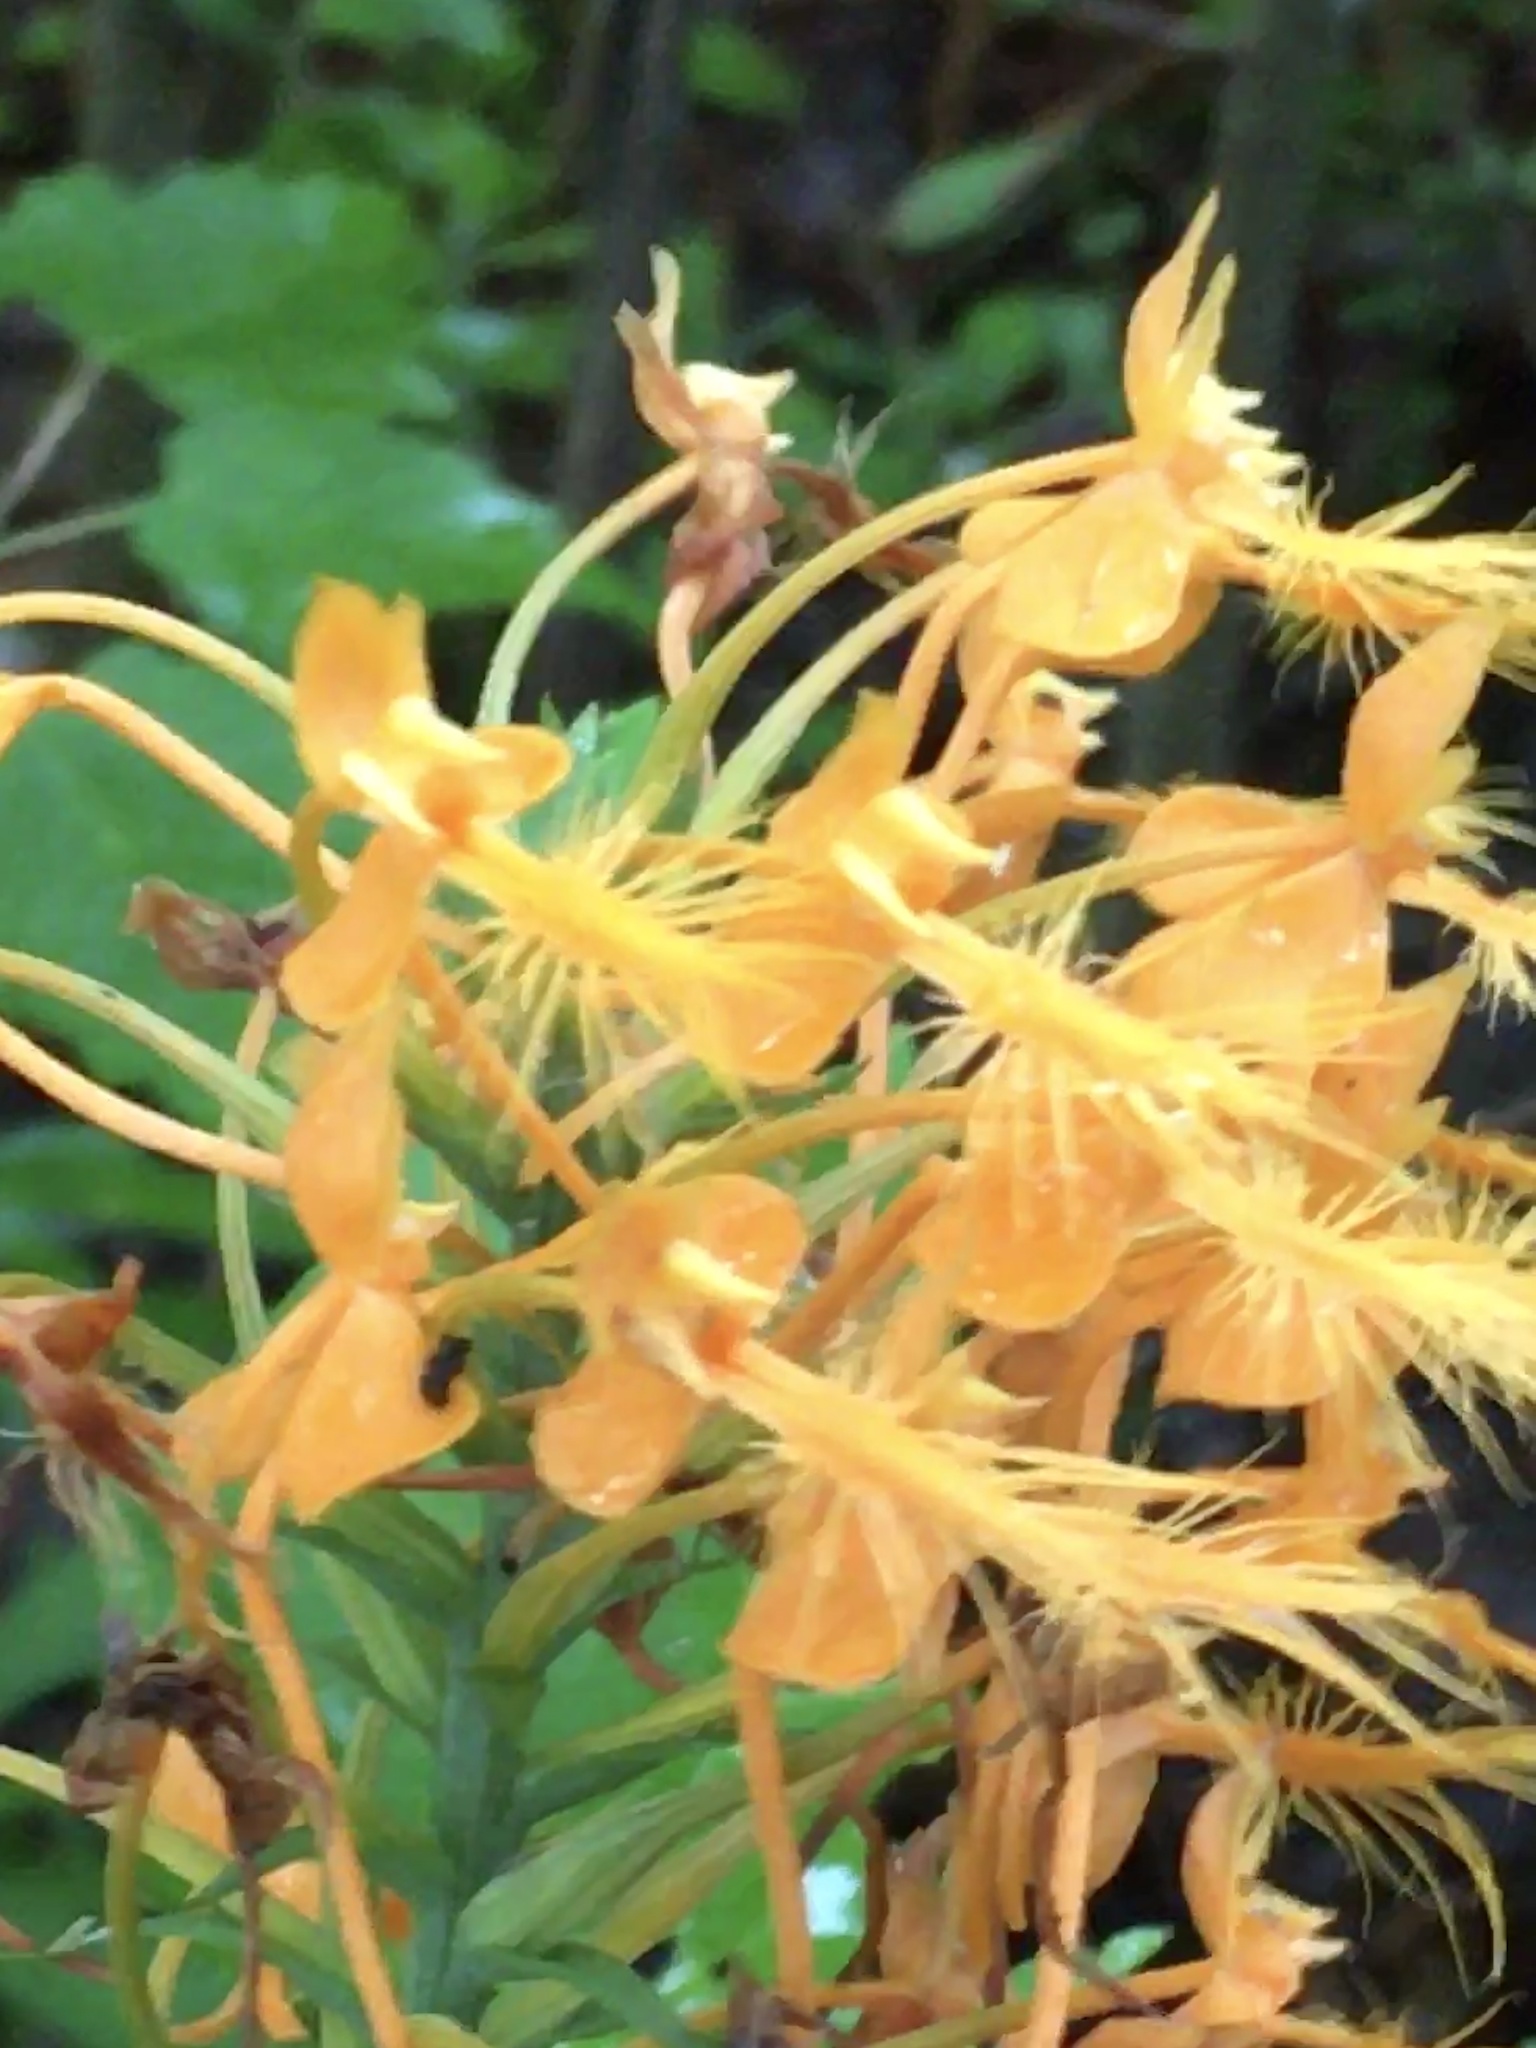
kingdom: Plantae
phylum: Tracheophyta
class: Liliopsida
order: Asparagales
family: Orchidaceae
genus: Platanthera
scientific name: Platanthera ciliaris
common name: Yellow fringed orchid
